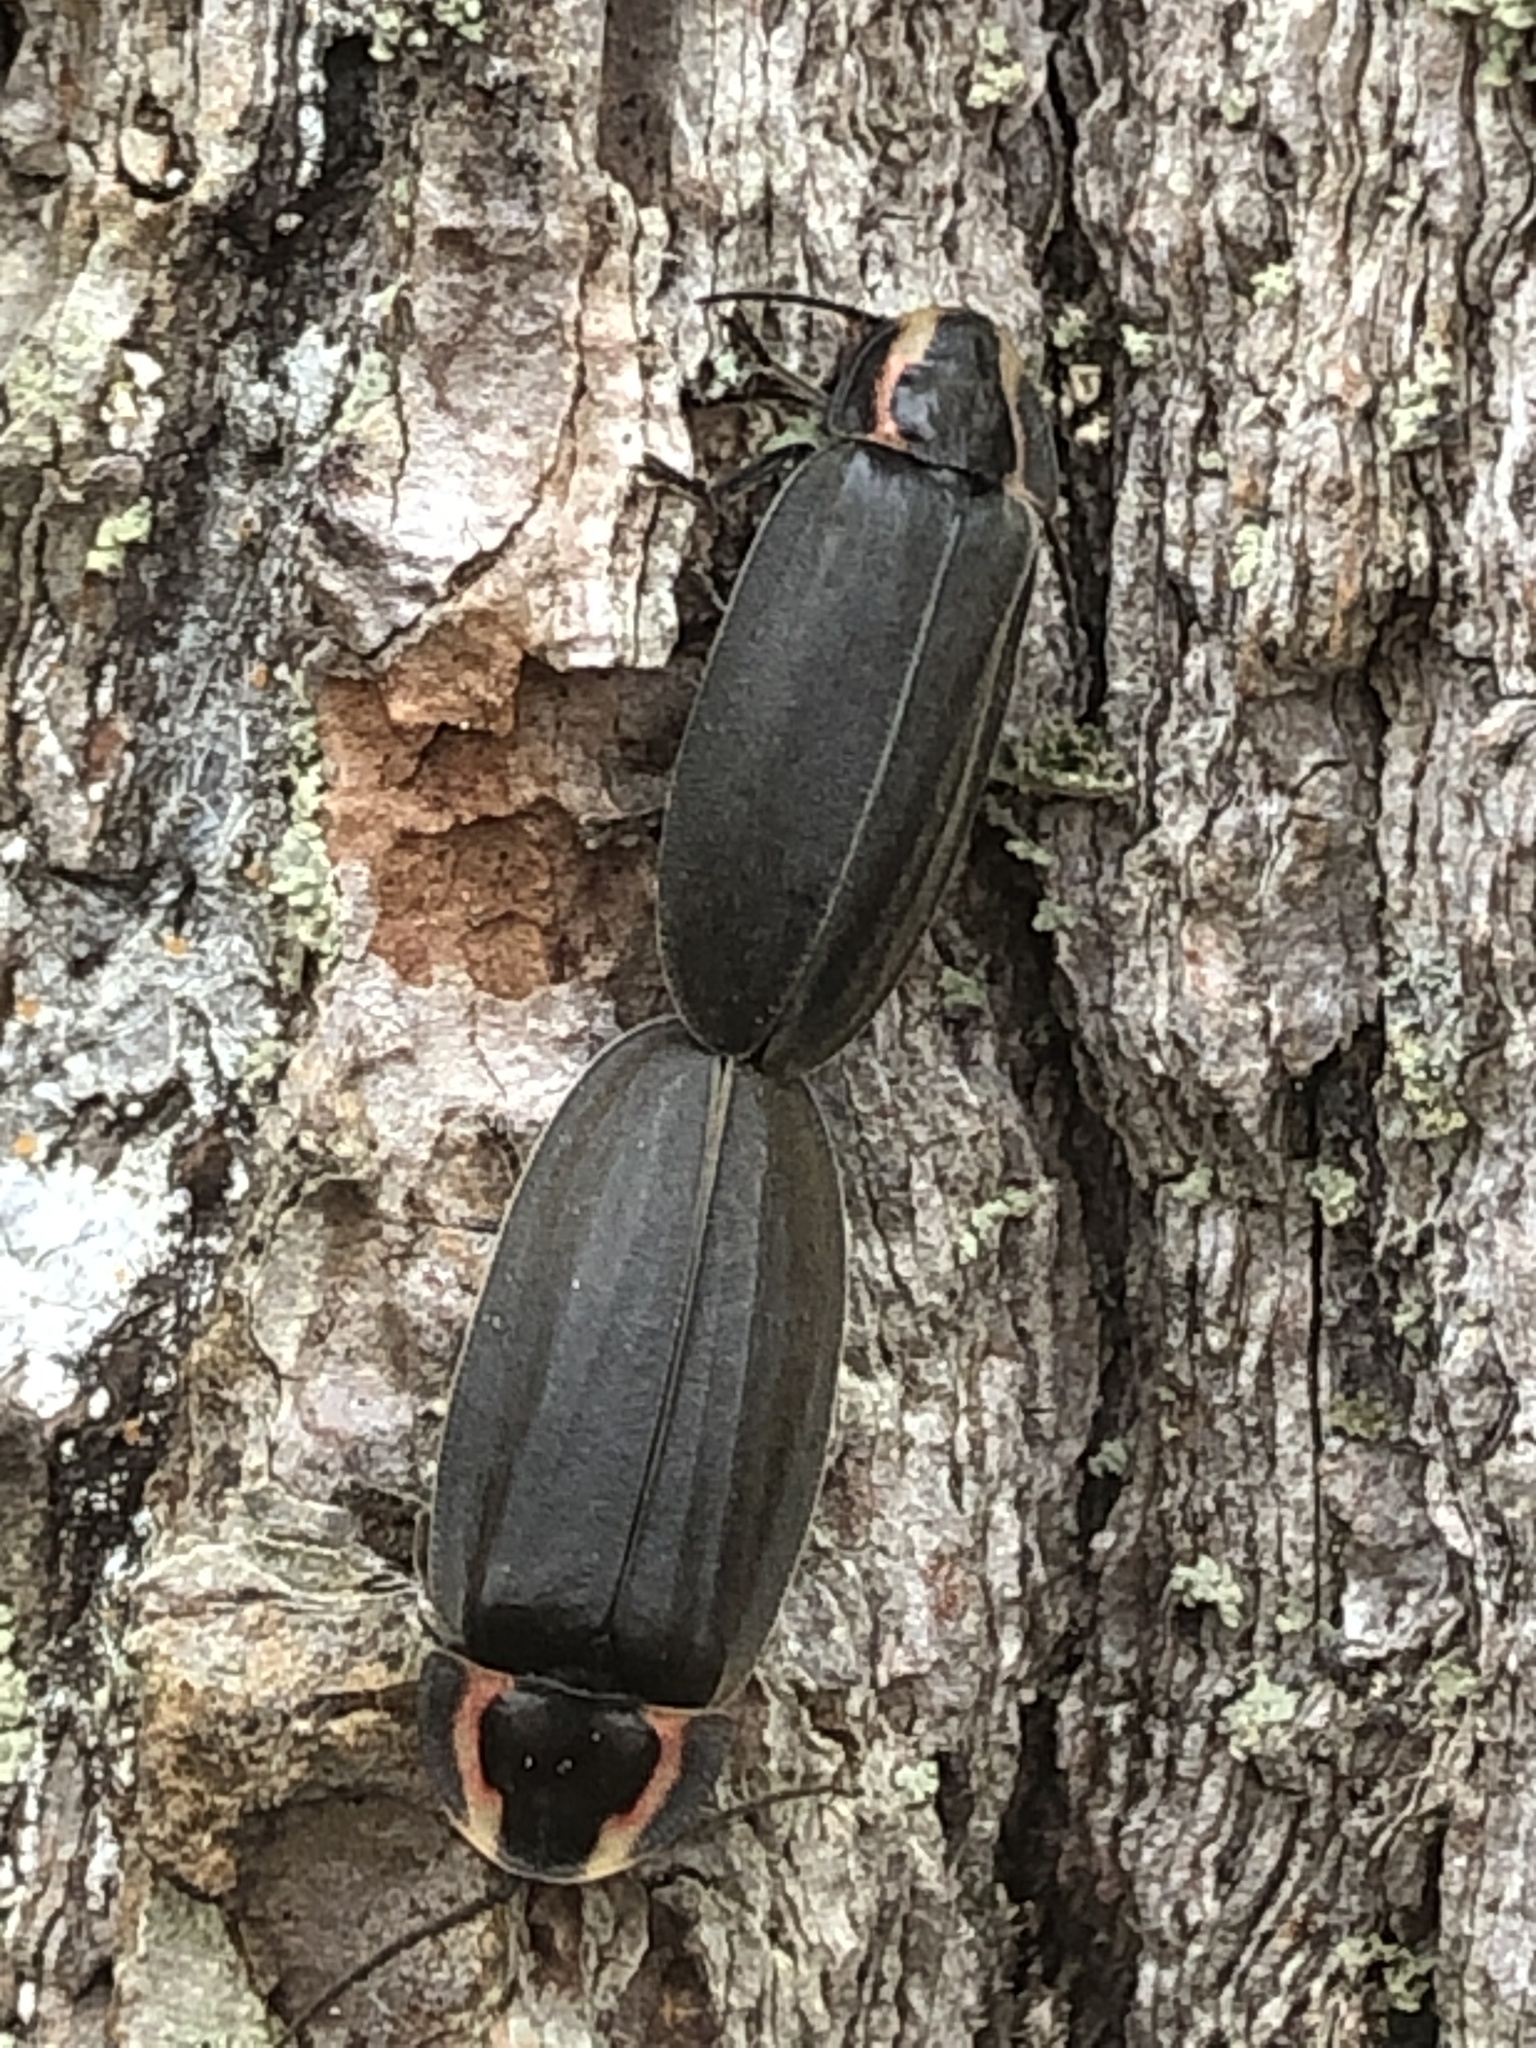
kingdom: Animalia
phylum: Arthropoda
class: Insecta
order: Coleoptera
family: Lampyridae
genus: Photinus
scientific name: Photinus corrusca
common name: Winter firefly
